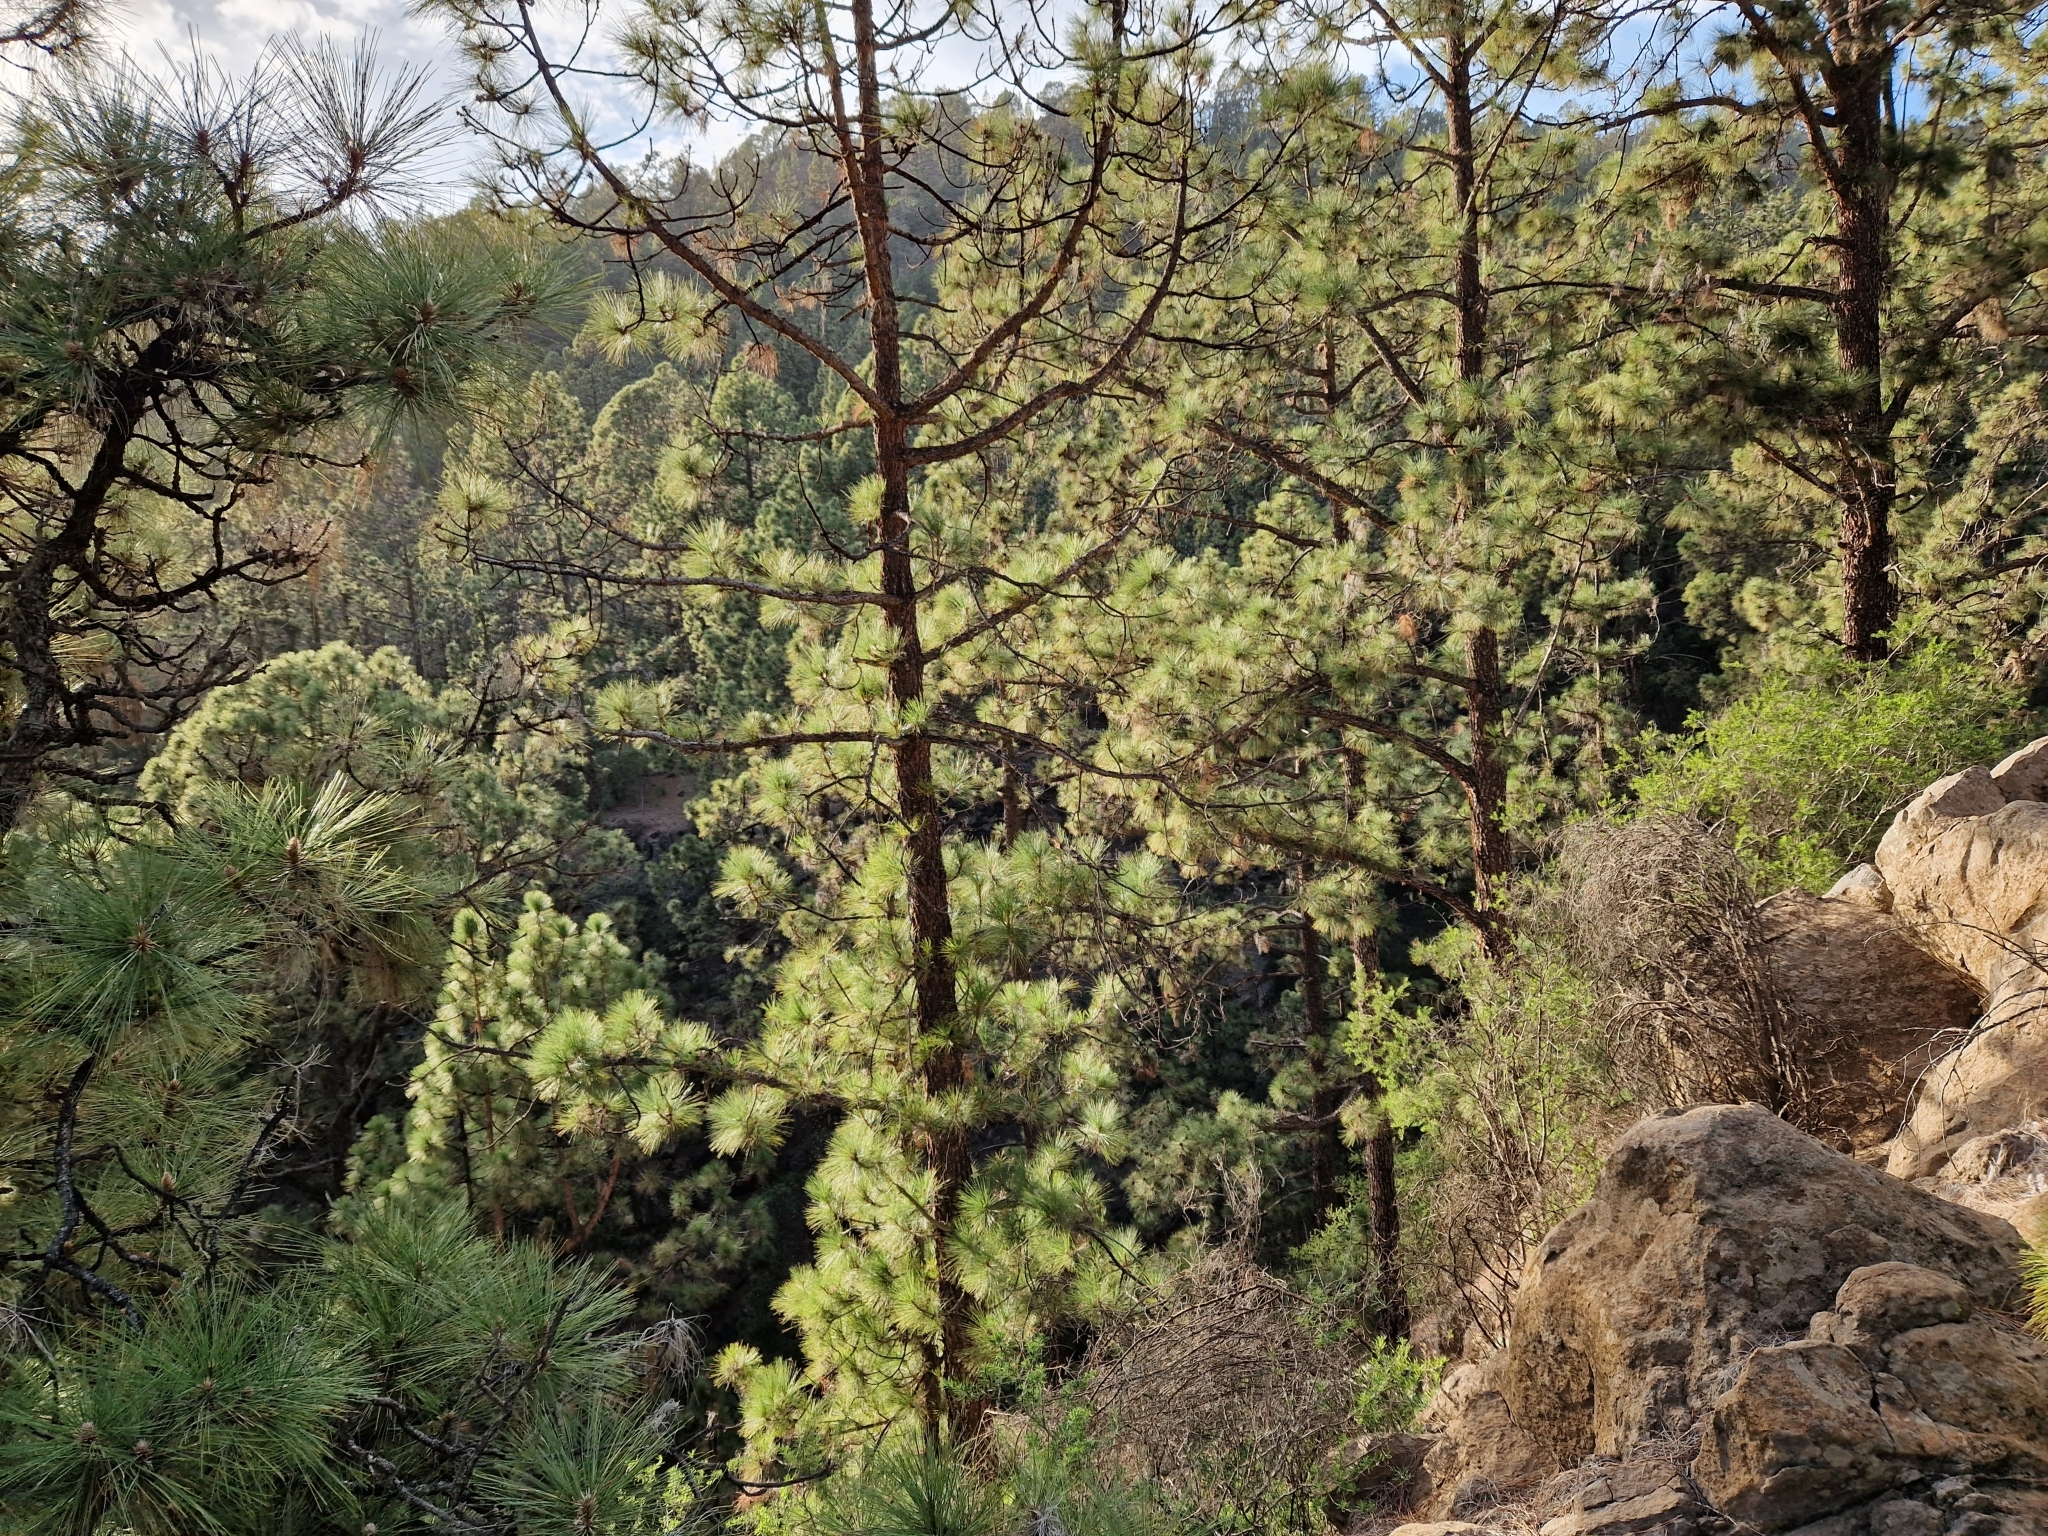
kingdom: Plantae
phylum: Tracheophyta
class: Pinopsida
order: Pinales
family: Pinaceae
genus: Pinus
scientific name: Pinus canariensis
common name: Canary islands pine
